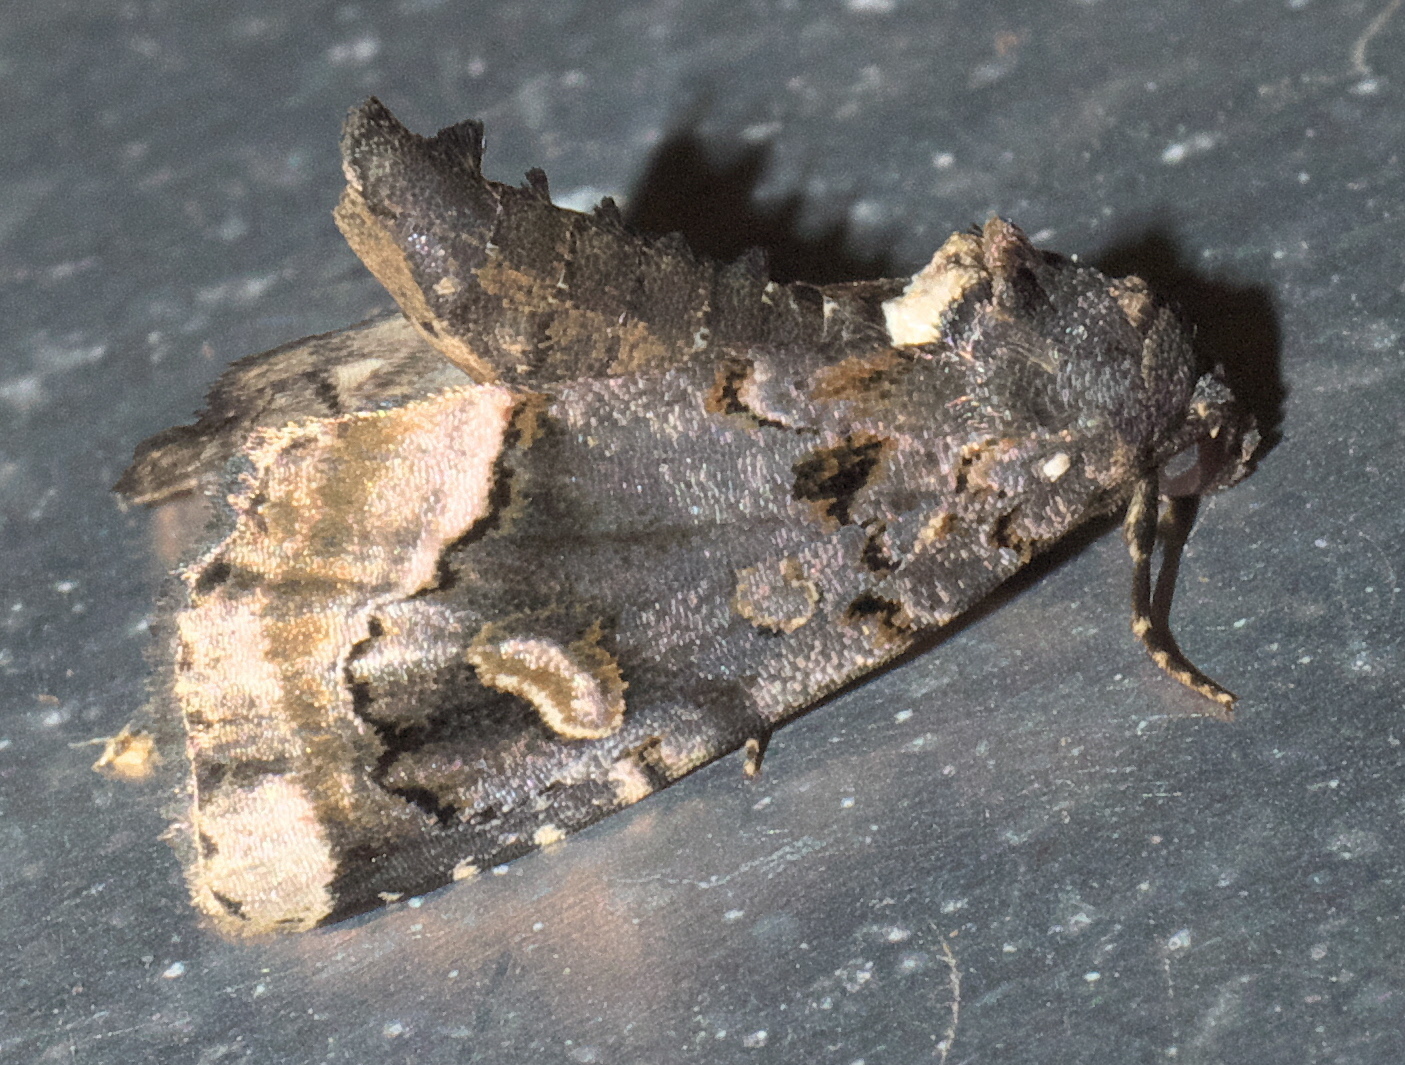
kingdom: Animalia
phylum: Arthropoda
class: Insecta
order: Lepidoptera
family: Noctuidae
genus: Homophoberia
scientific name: Homophoberia apicosa
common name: Black wedge-spot
